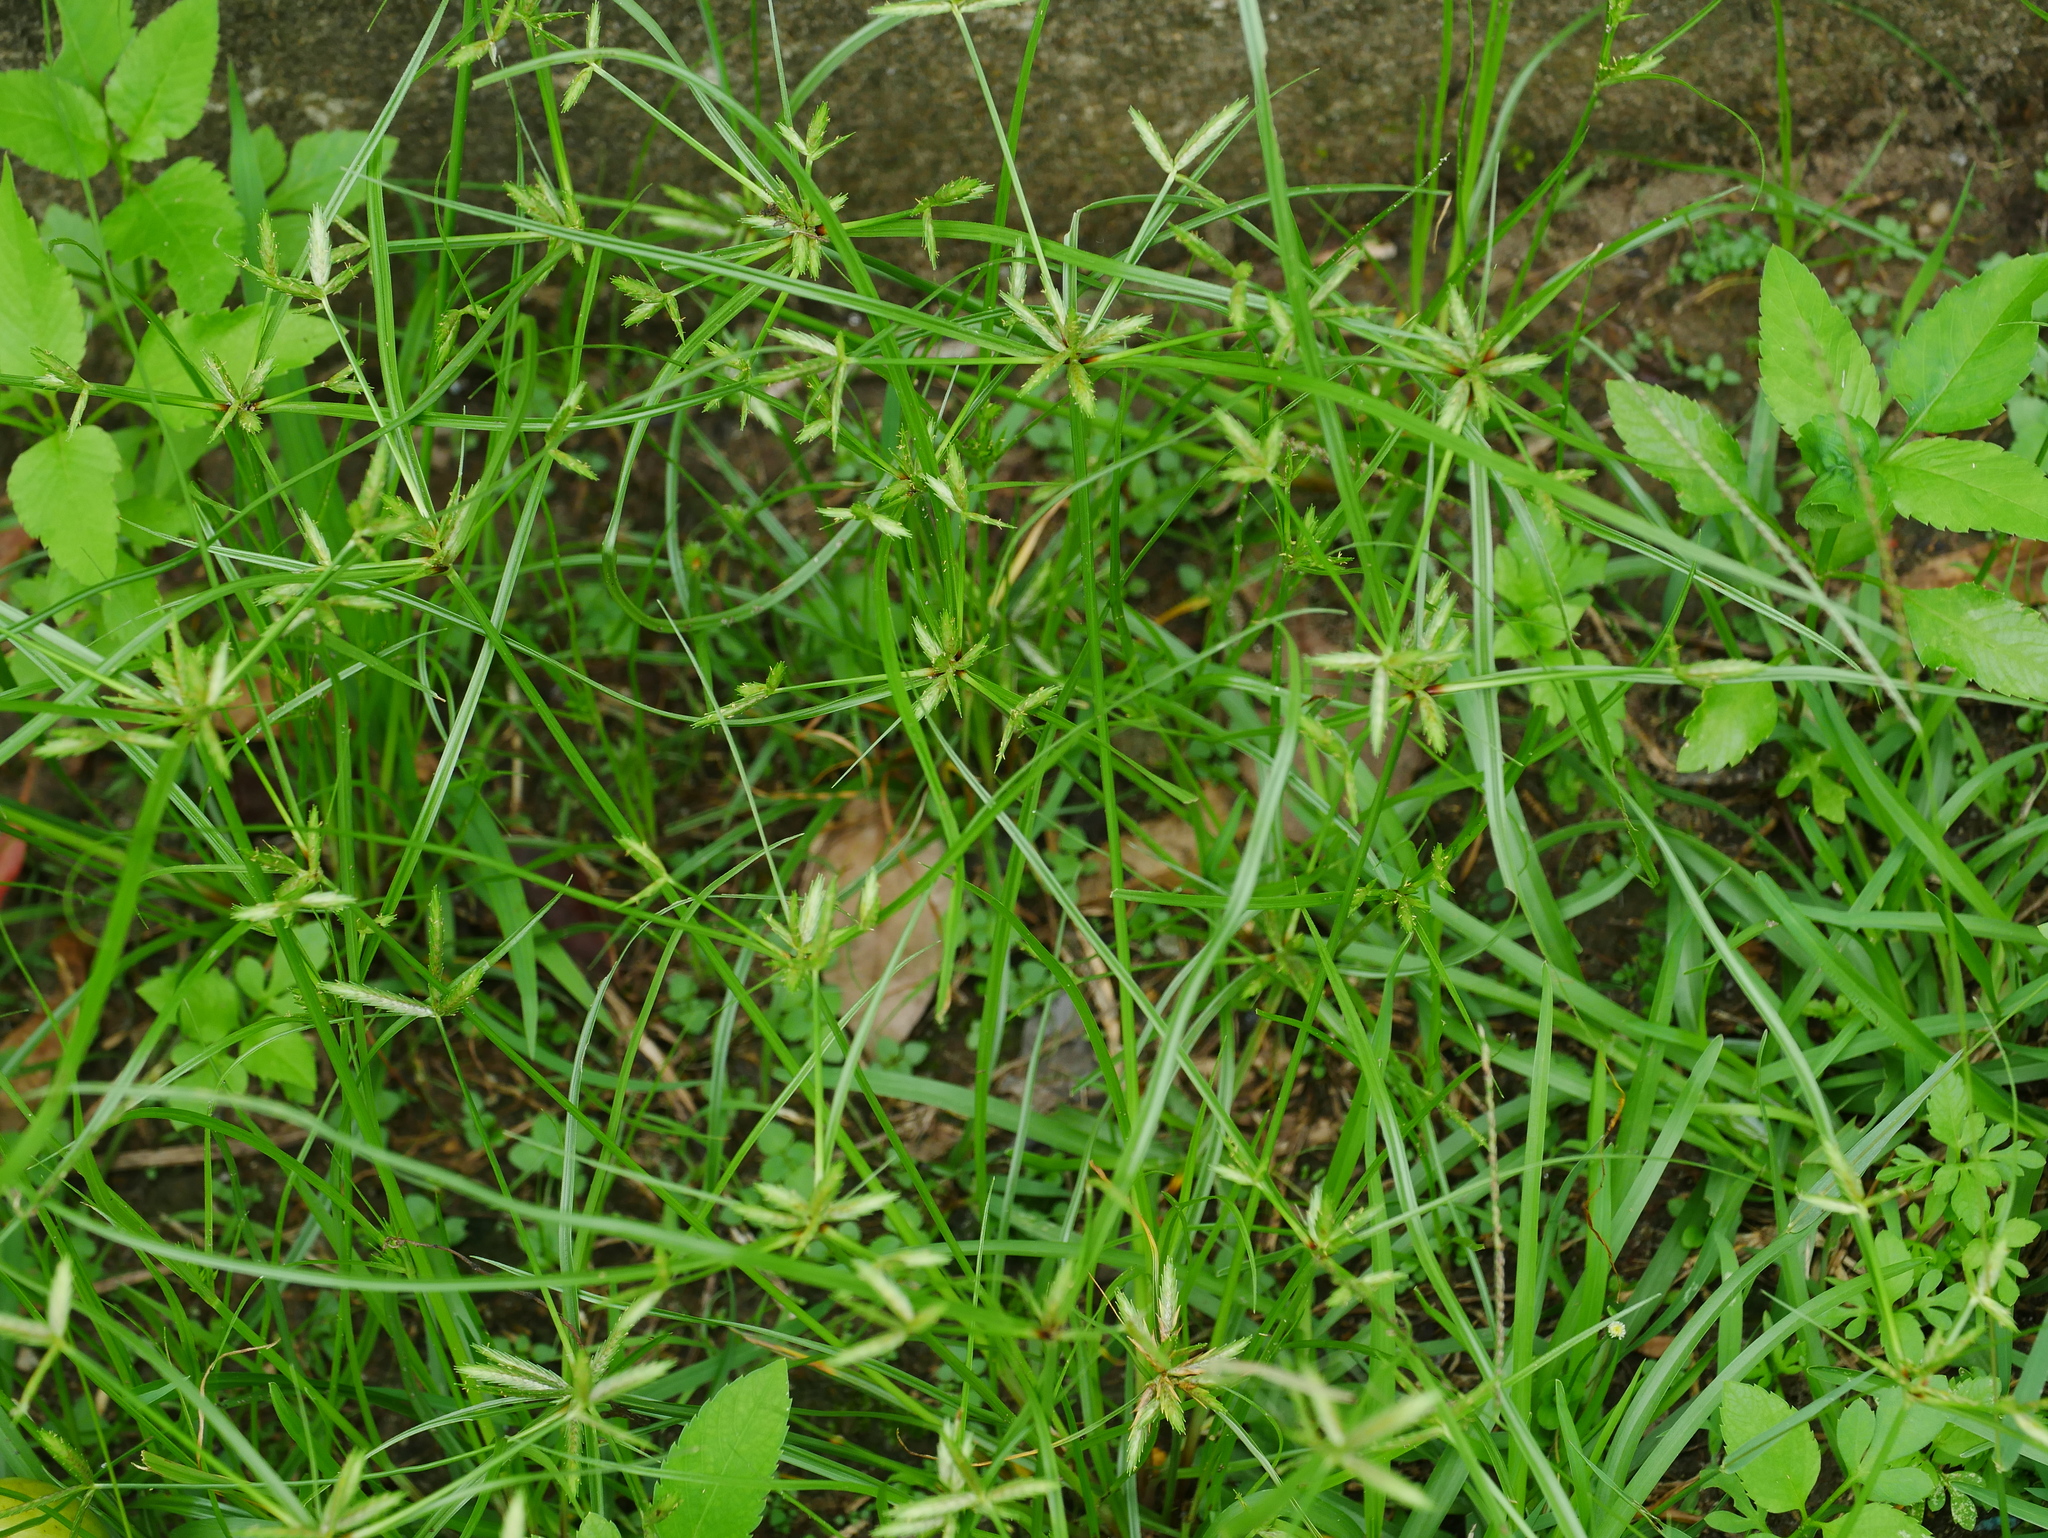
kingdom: Plantae
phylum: Tracheophyta
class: Liliopsida
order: Poales
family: Cyperaceae
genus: Cyperus
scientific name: Cyperus compressus
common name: Poorland flatsedge
